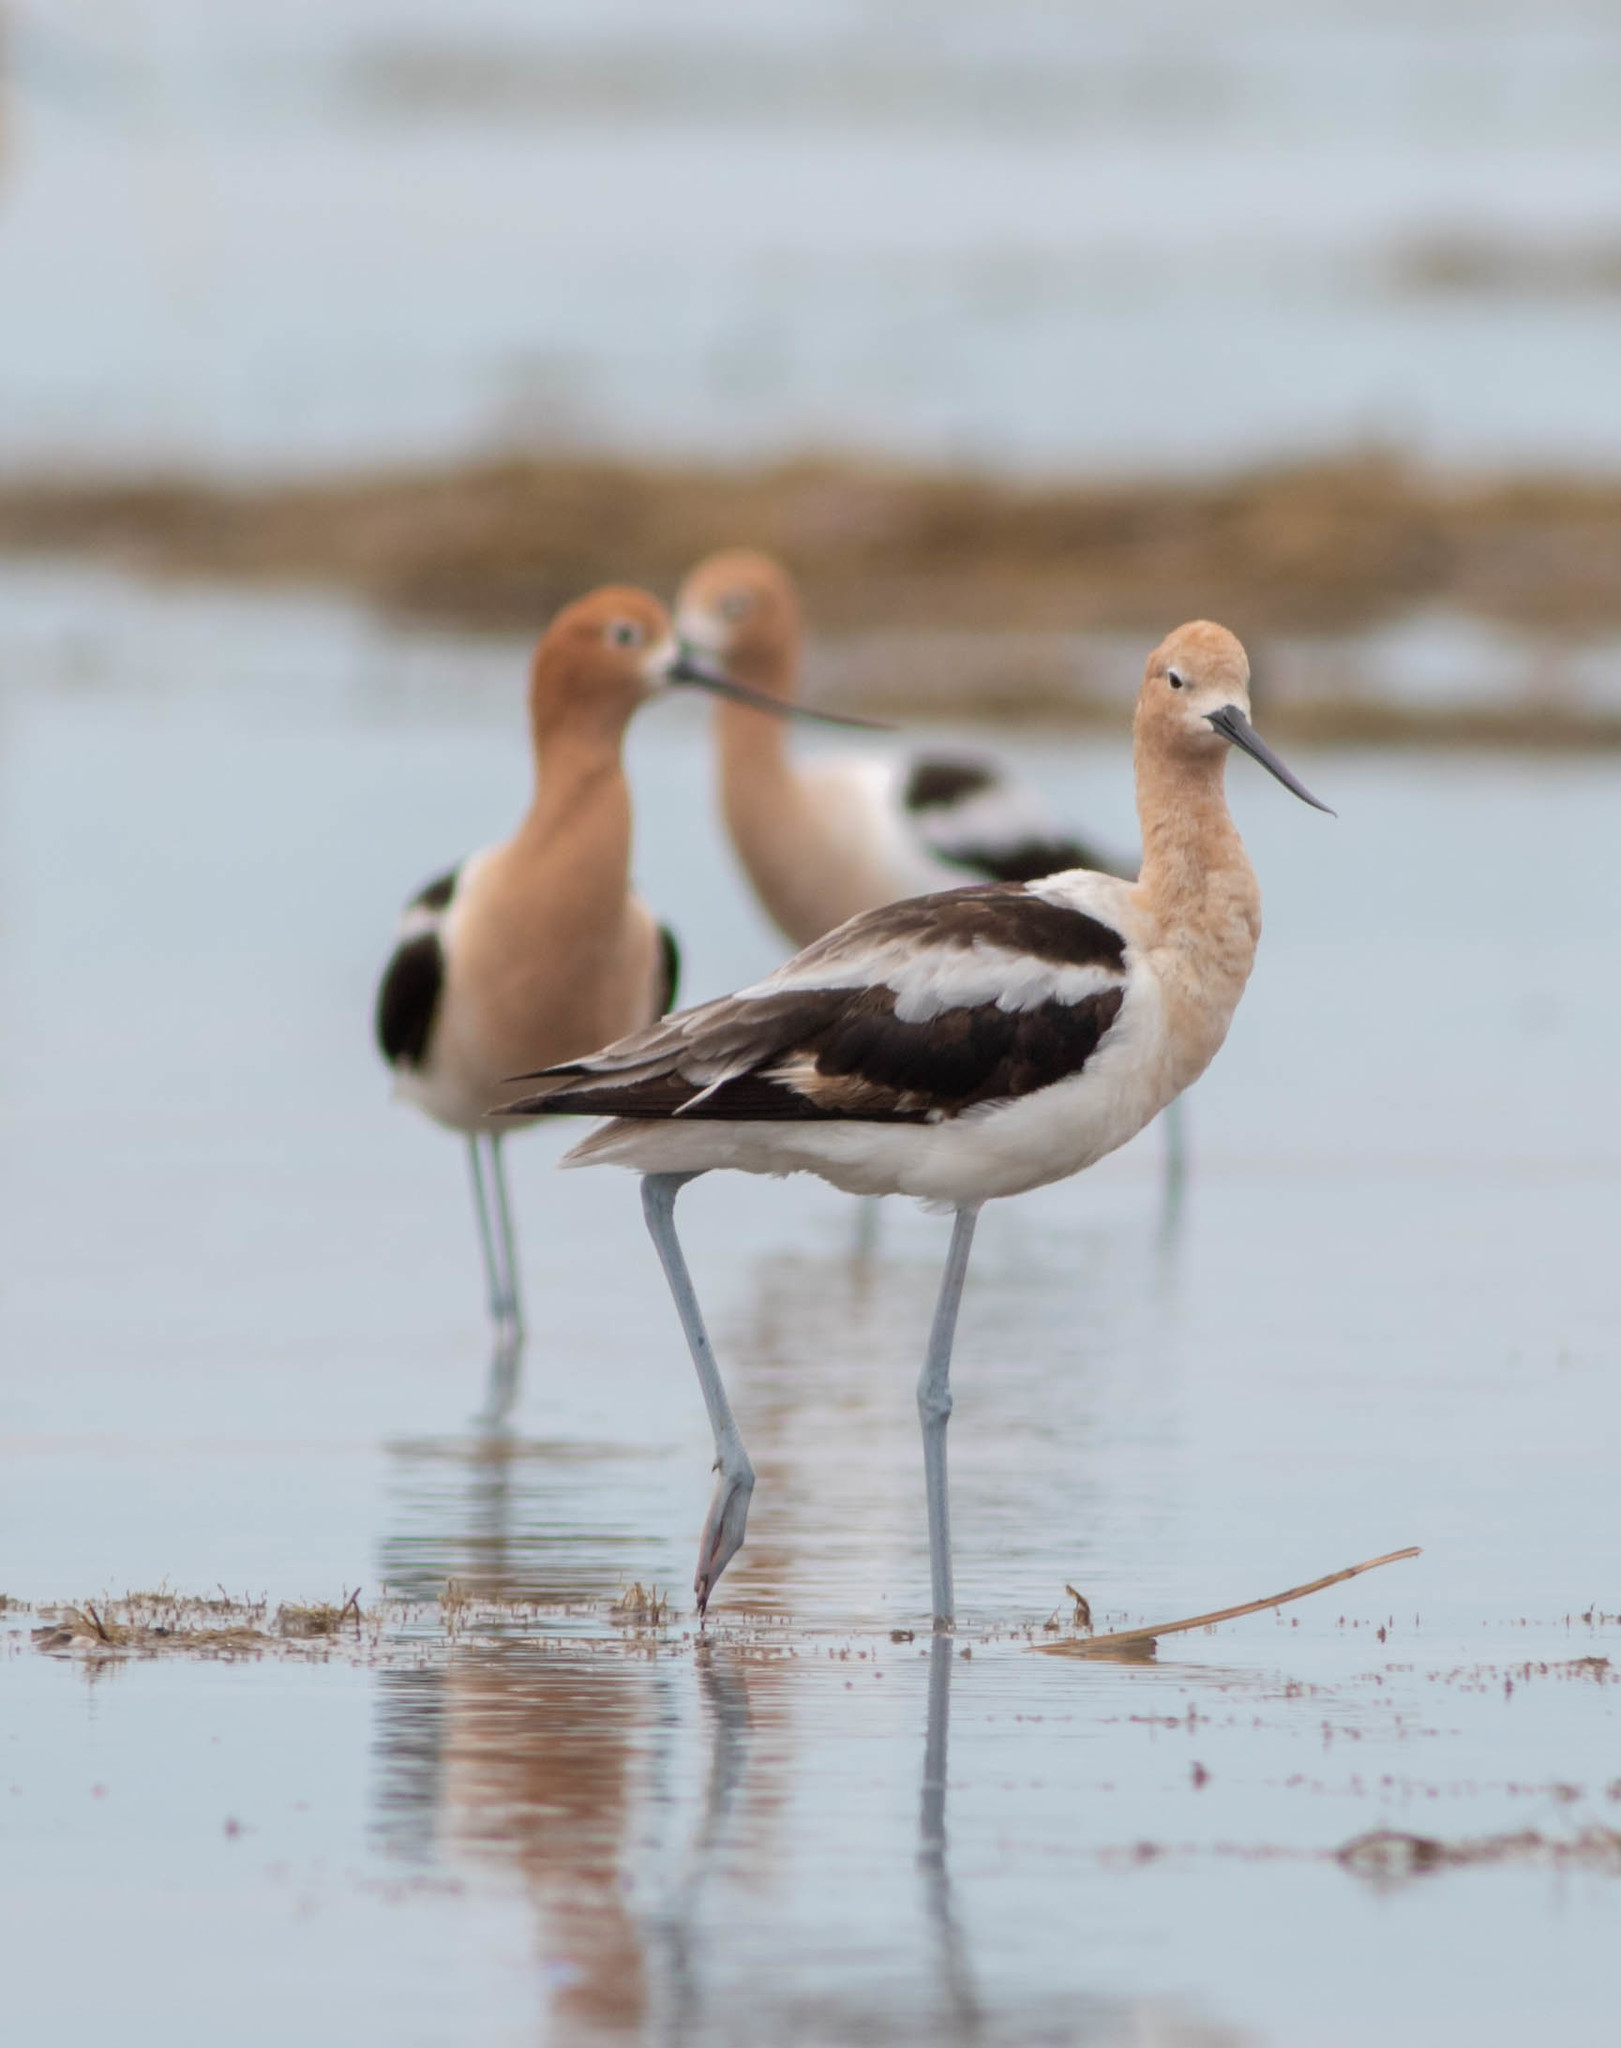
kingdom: Animalia
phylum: Chordata
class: Aves
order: Charadriiformes
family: Recurvirostridae
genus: Recurvirostra
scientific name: Recurvirostra americana
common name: American avocet
